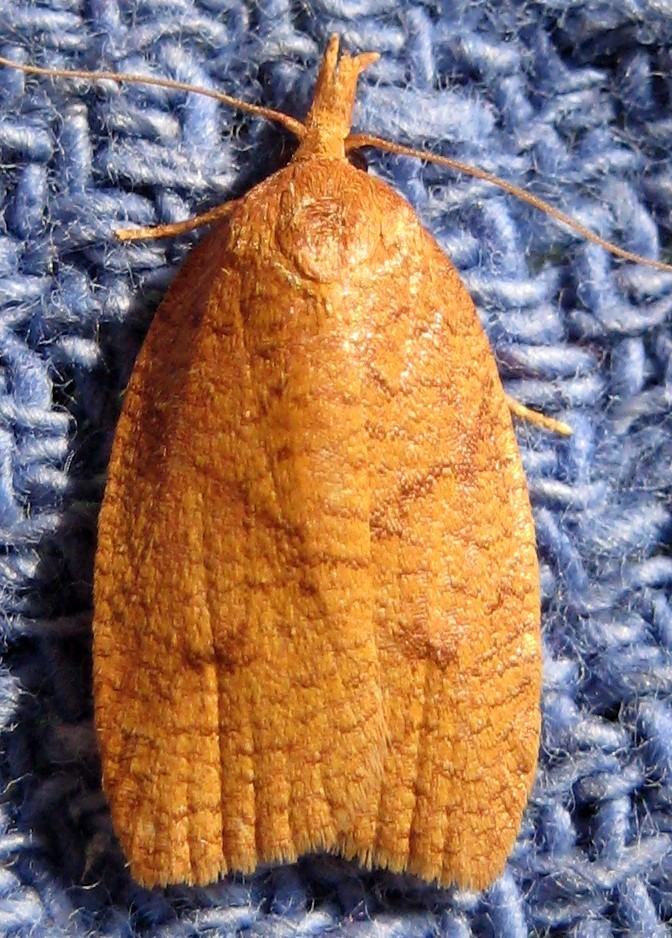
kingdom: Animalia
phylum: Arthropoda
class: Insecta
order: Lepidoptera
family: Tortricidae
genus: Cenopis
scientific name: Cenopis directana
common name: Chokecherry leafroller moth
